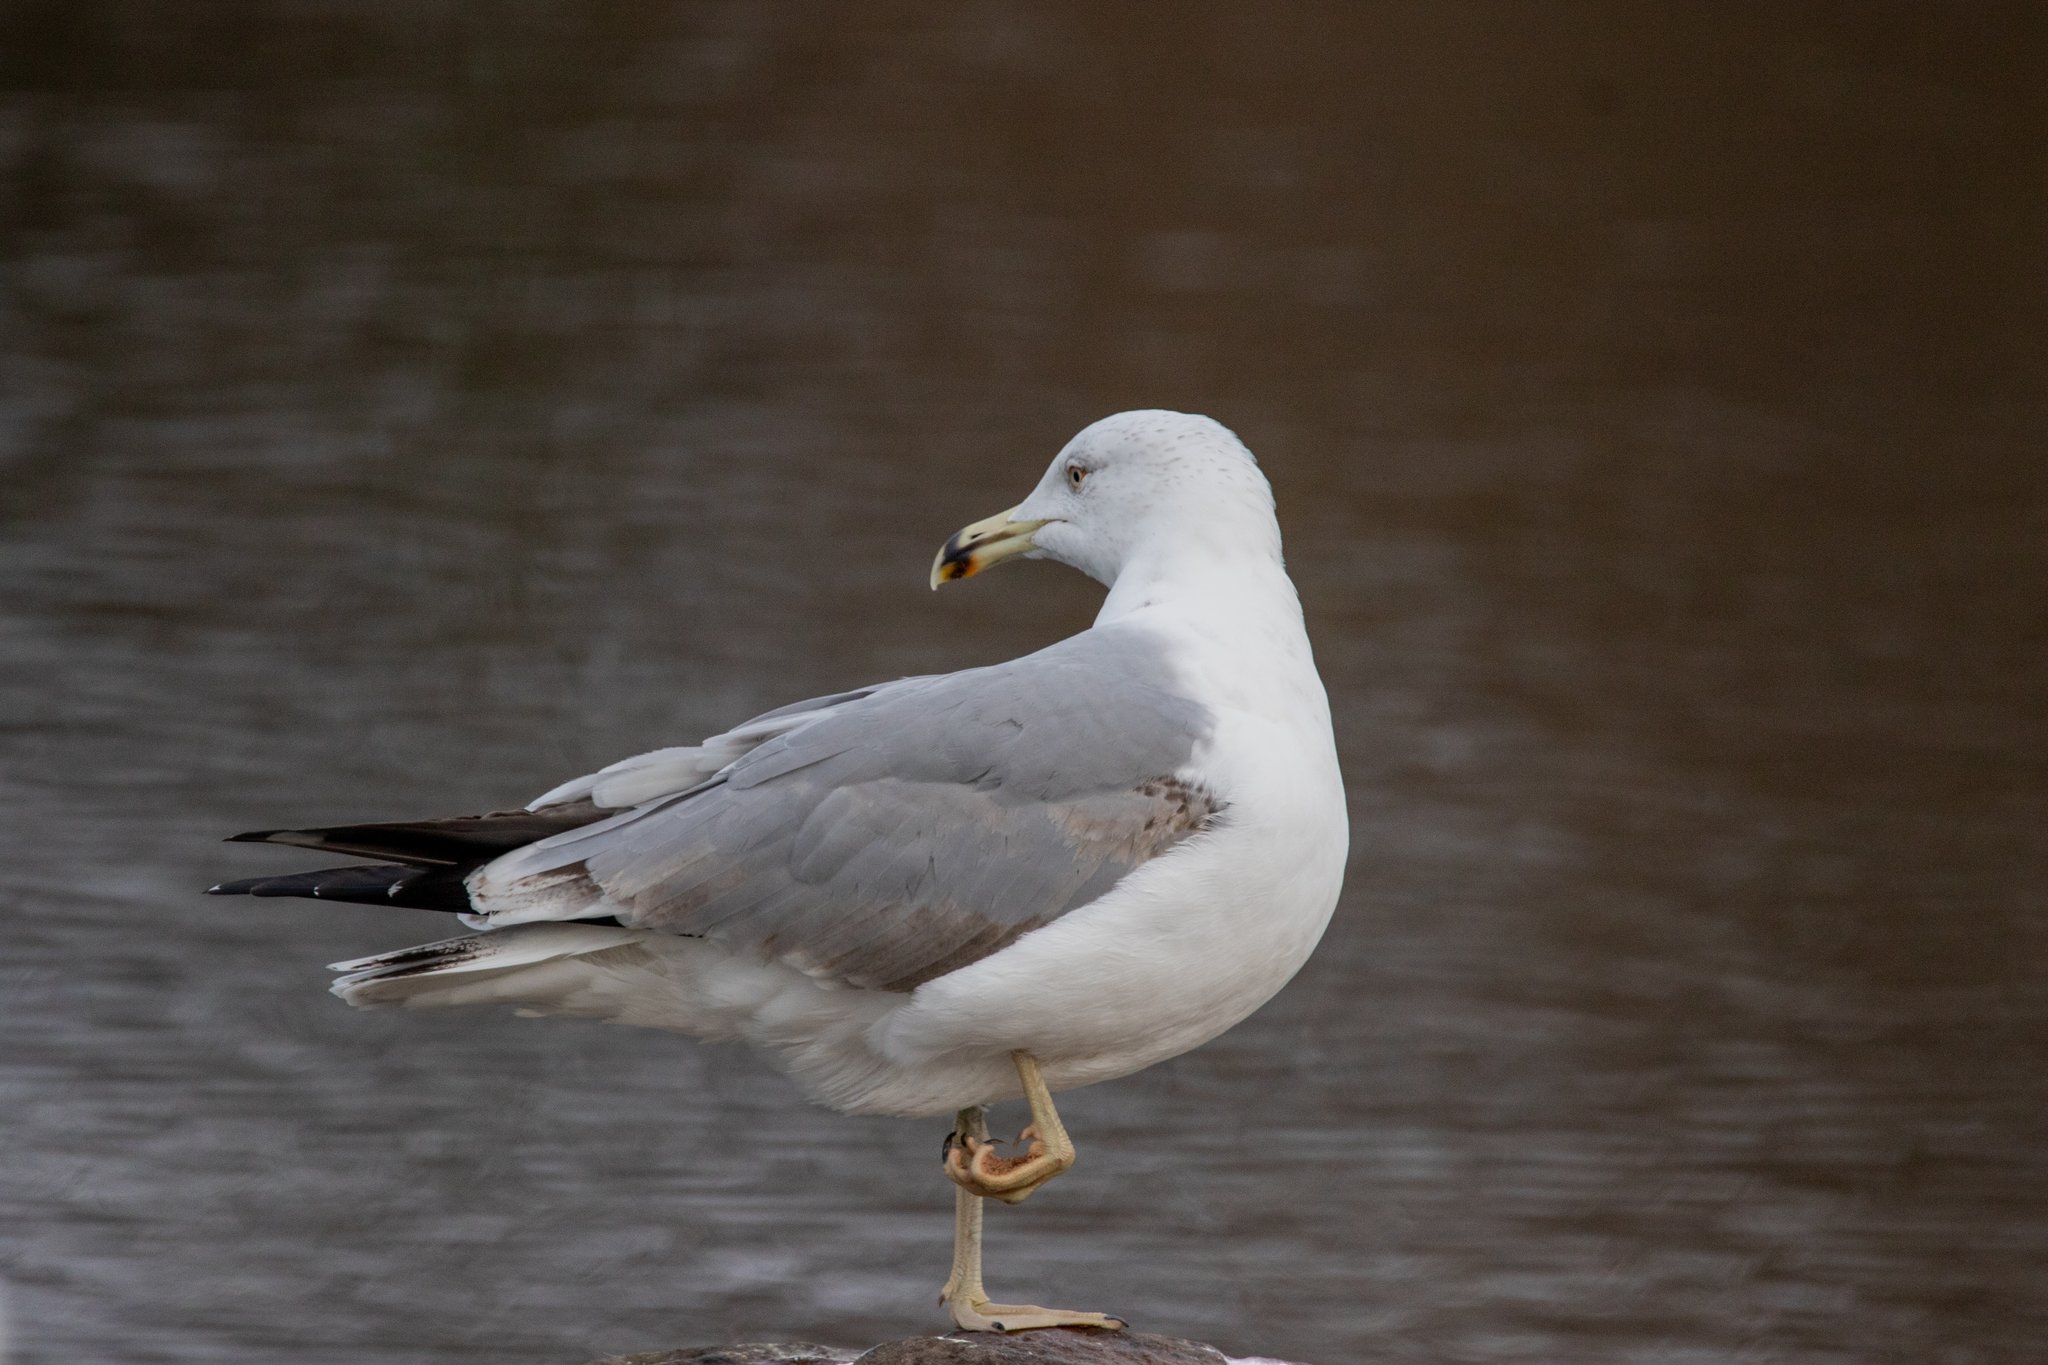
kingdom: Animalia
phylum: Chordata
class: Aves
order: Charadriiformes
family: Laridae
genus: Larus
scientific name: Larus michahellis
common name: Yellow-legged gull
